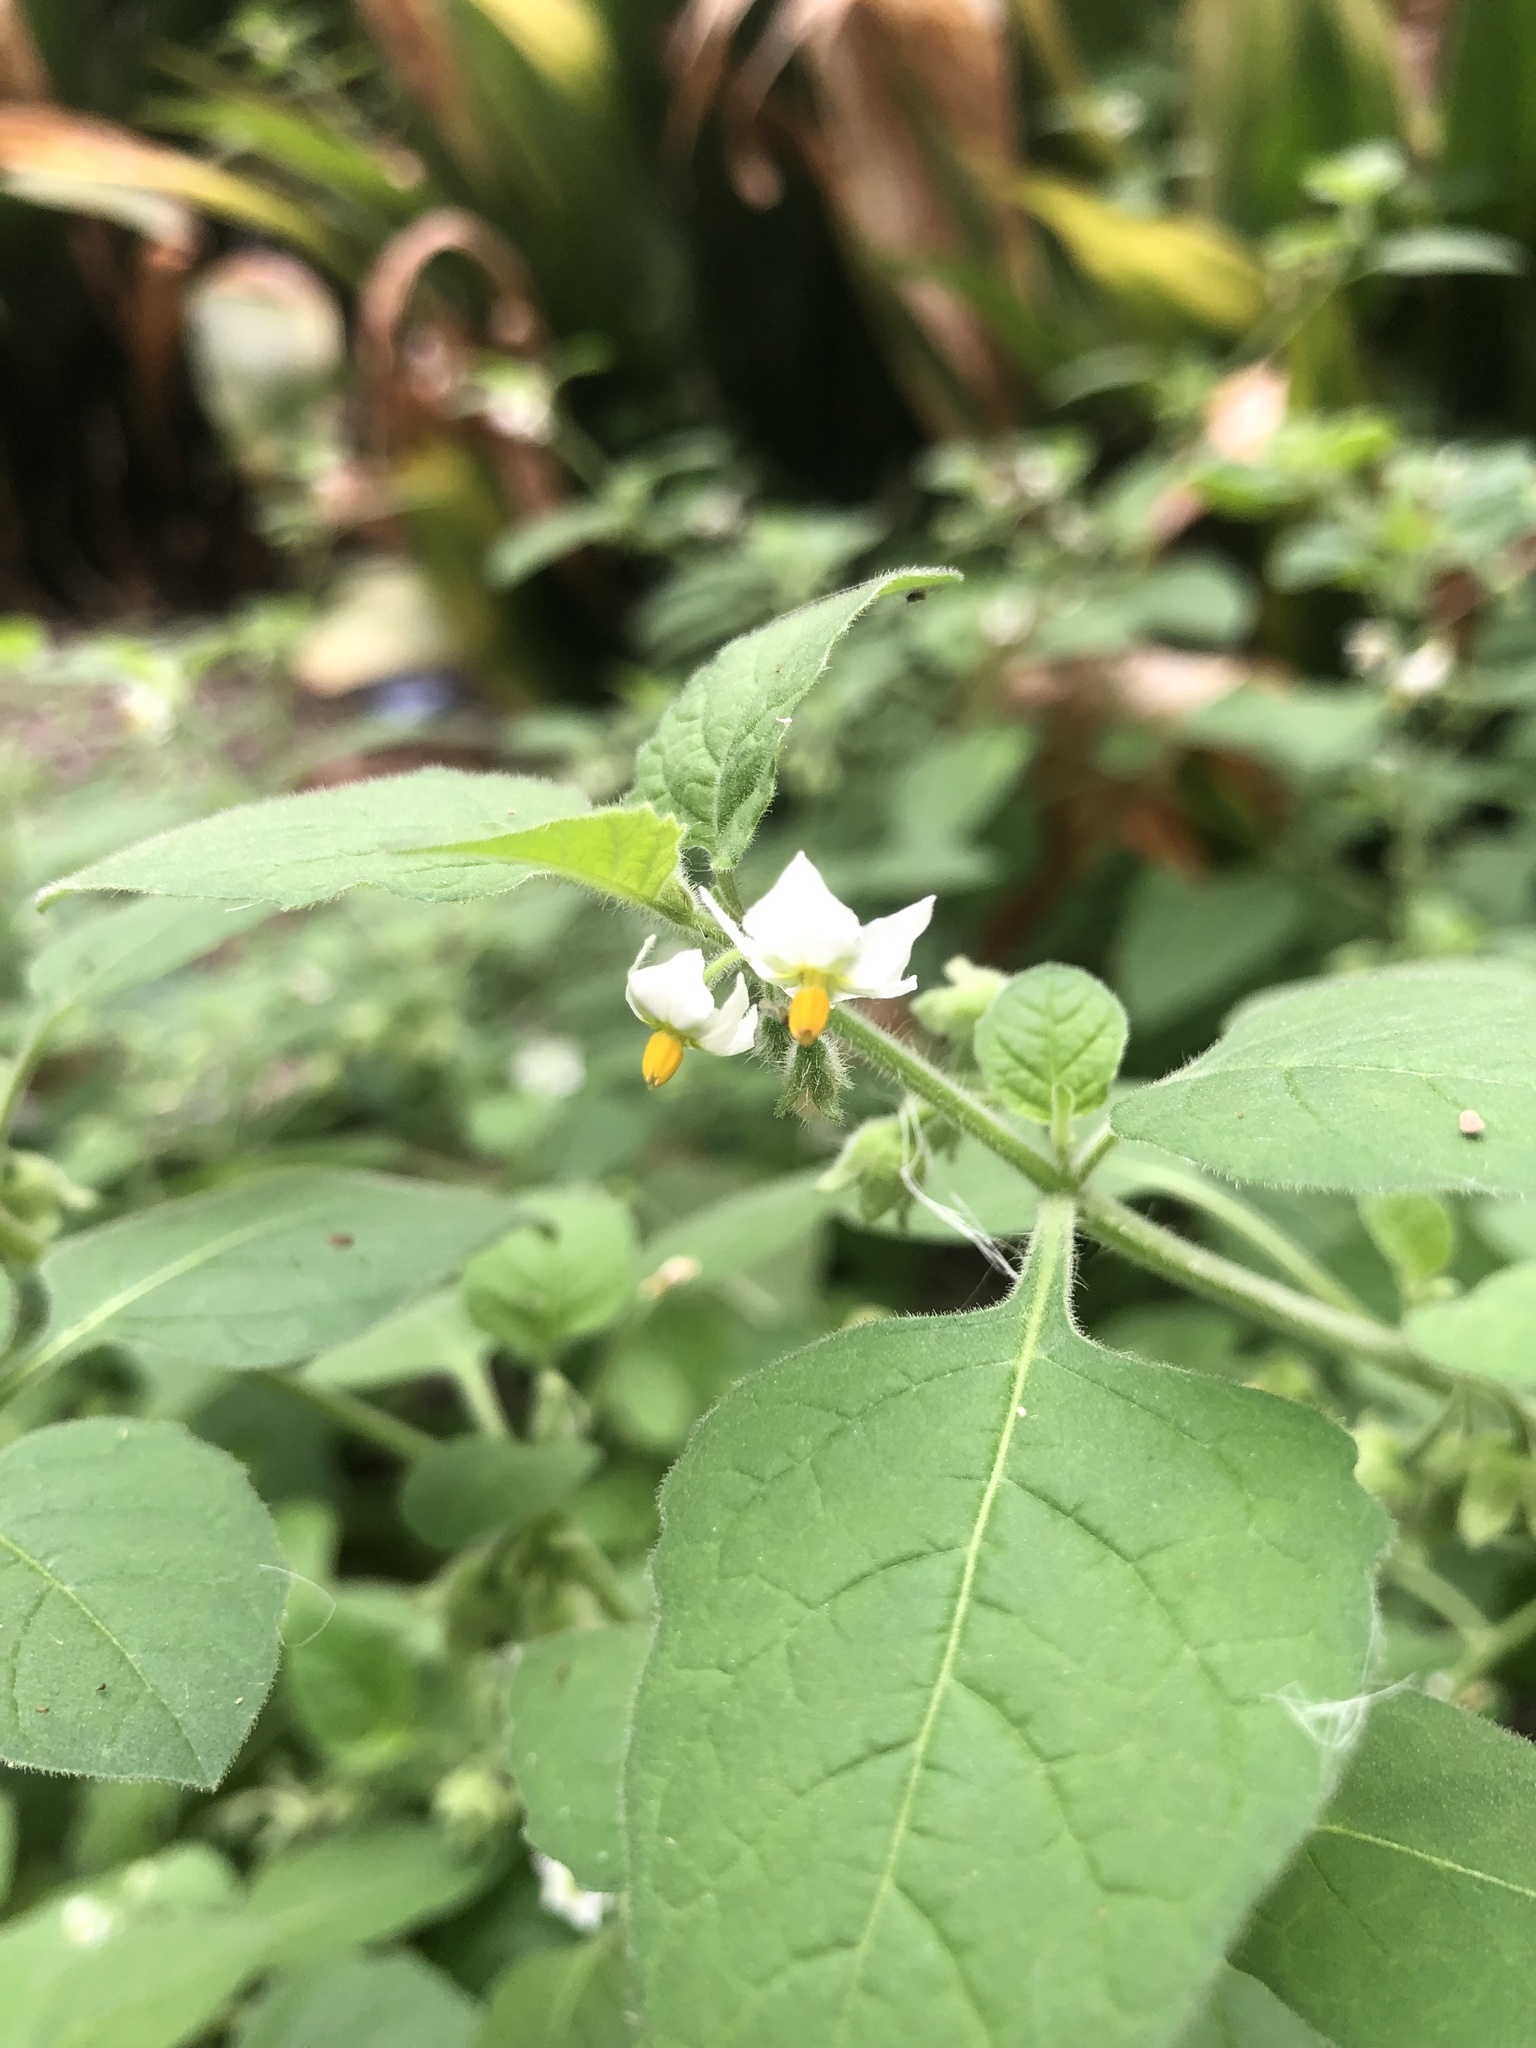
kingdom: Plantae
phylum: Tracheophyta
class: Magnoliopsida
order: Solanales
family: Solanaceae
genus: Solanum
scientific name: Solanum sarrachoides
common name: Leafy-fruited nightshade
